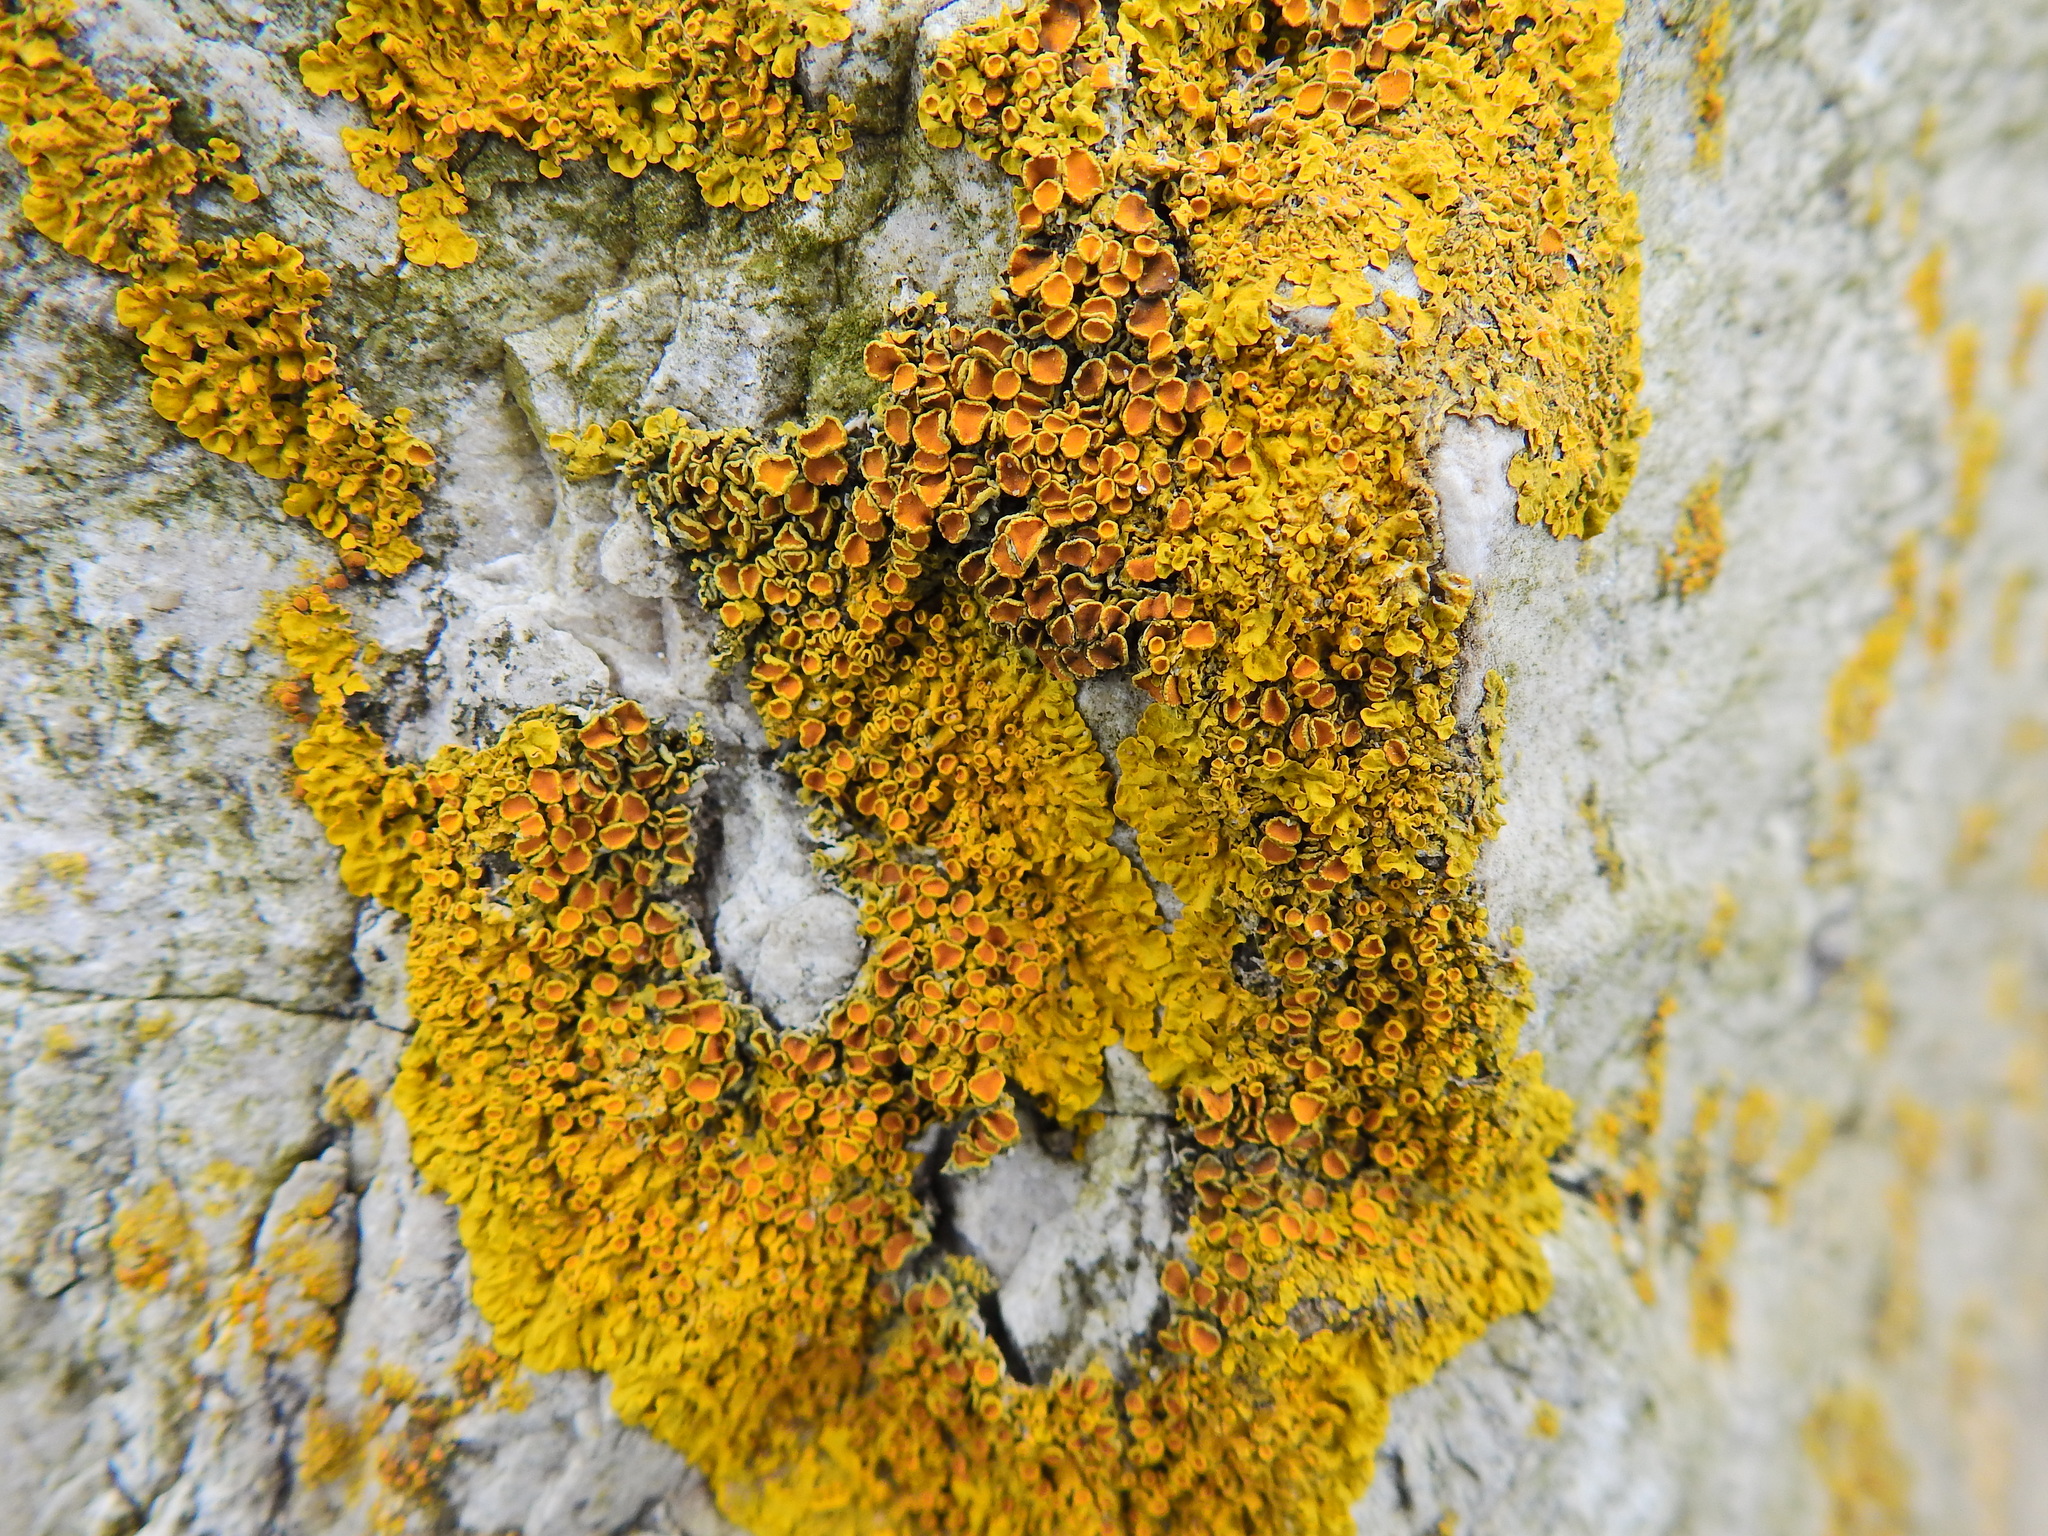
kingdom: Fungi
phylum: Ascomycota
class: Lecanoromycetes
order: Teloschistales
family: Teloschistaceae
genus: Xanthoria
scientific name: Xanthoria parietina
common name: Common orange lichen
